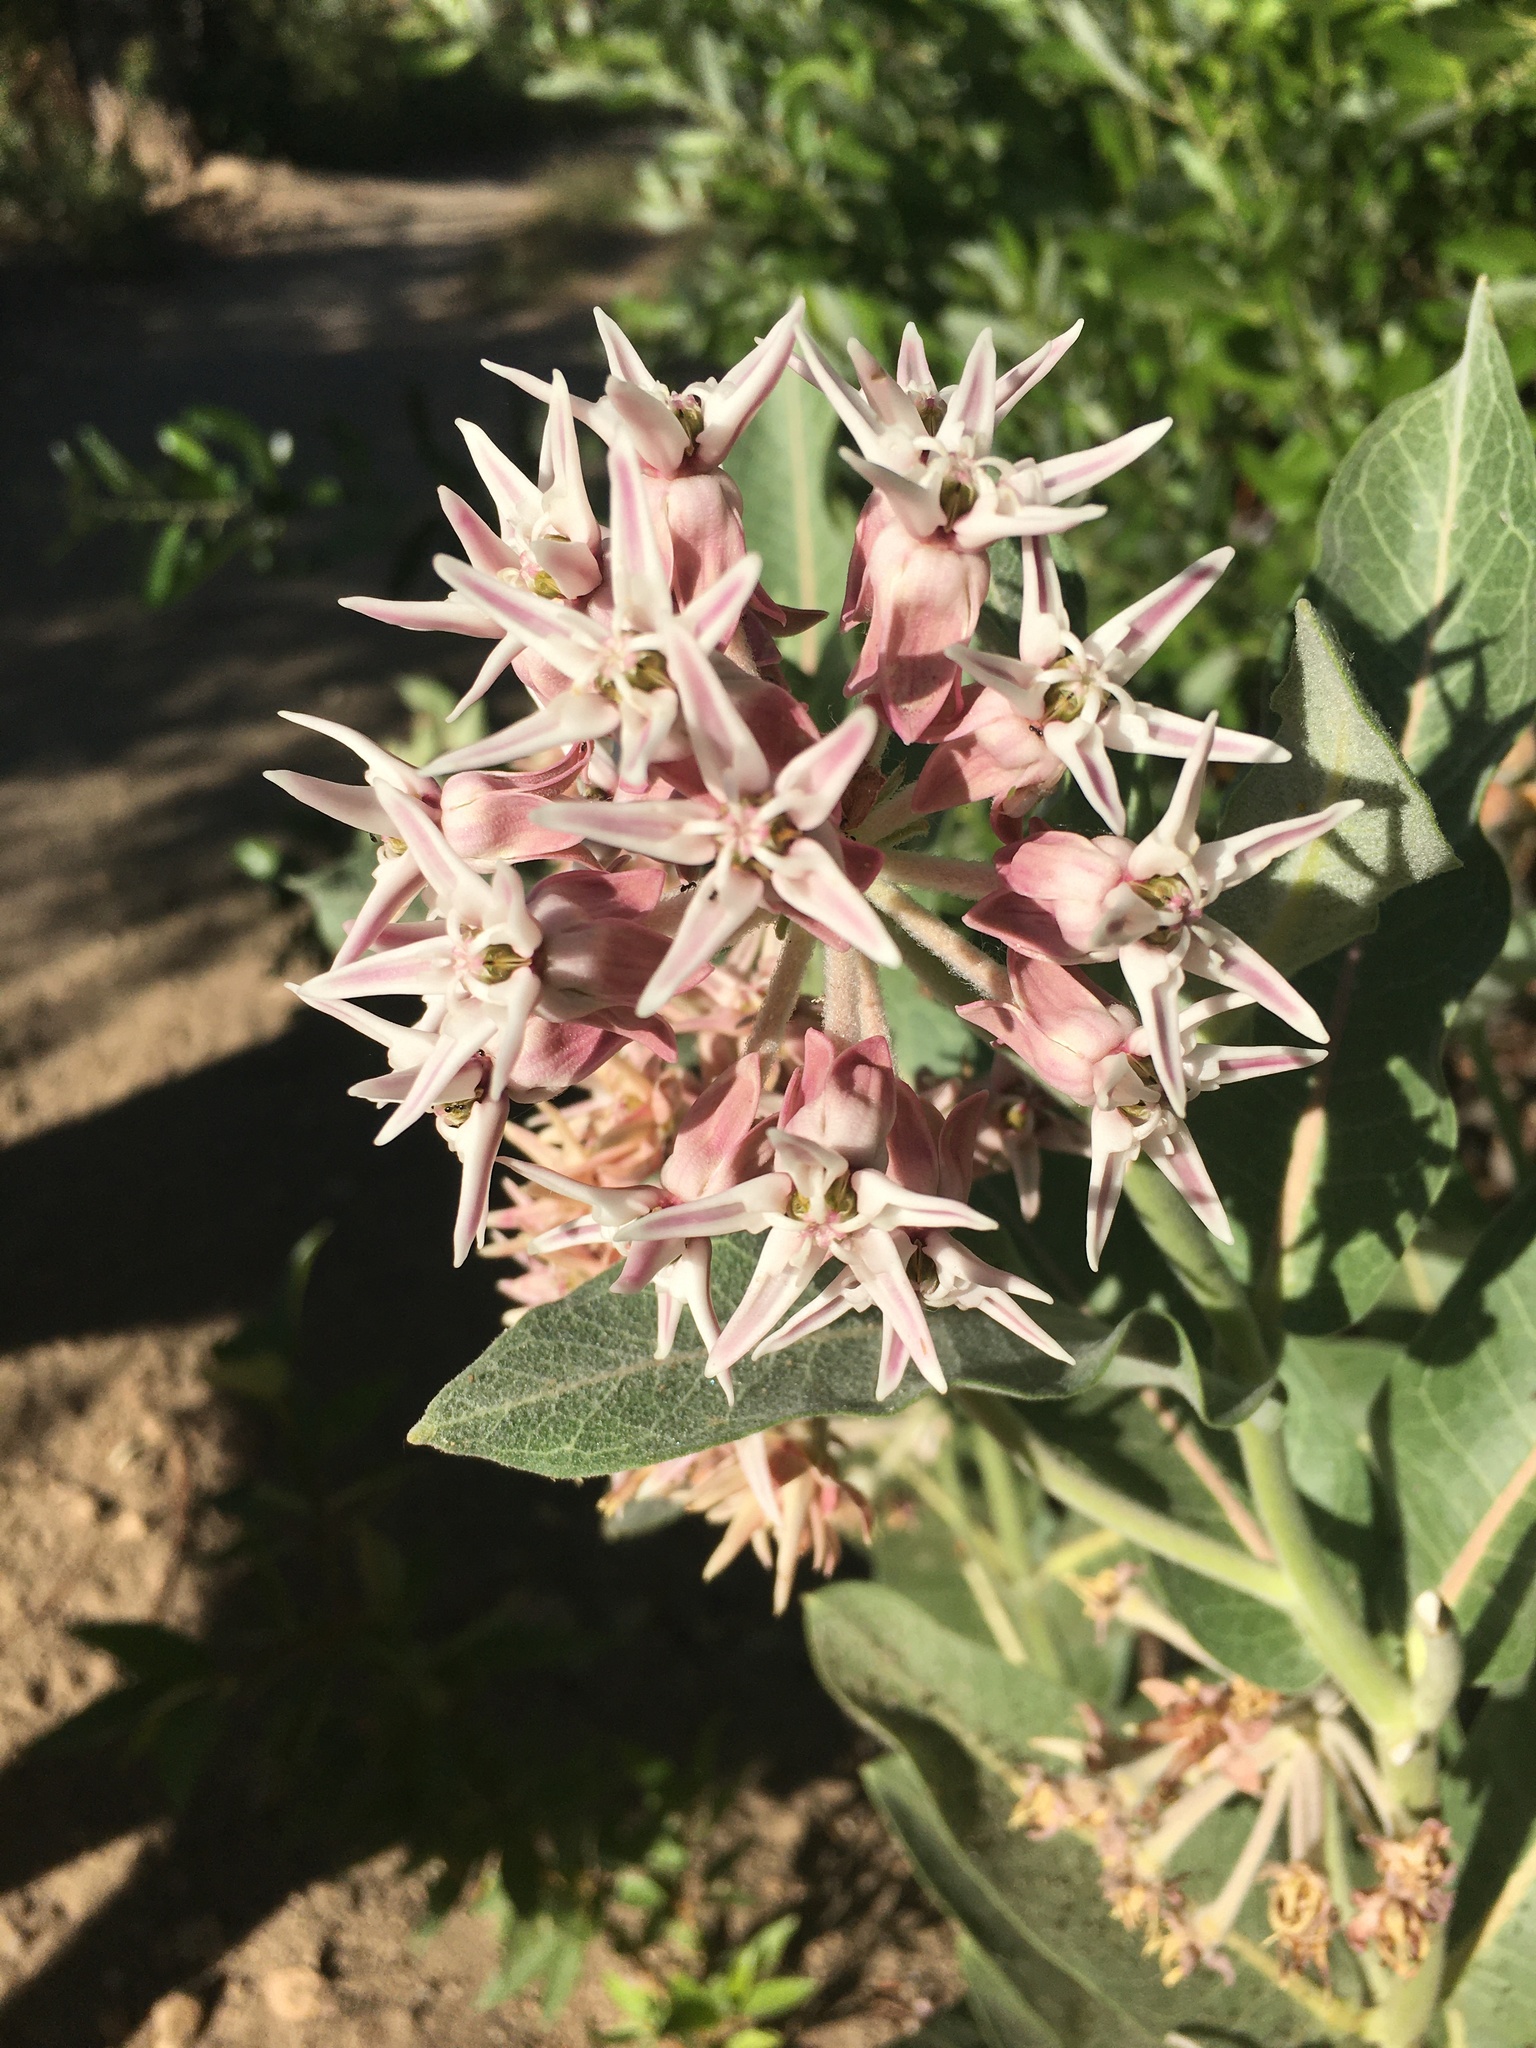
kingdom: Plantae
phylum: Tracheophyta
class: Magnoliopsida
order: Gentianales
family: Apocynaceae
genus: Asclepias
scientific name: Asclepias speciosa
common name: Showy milkweed
